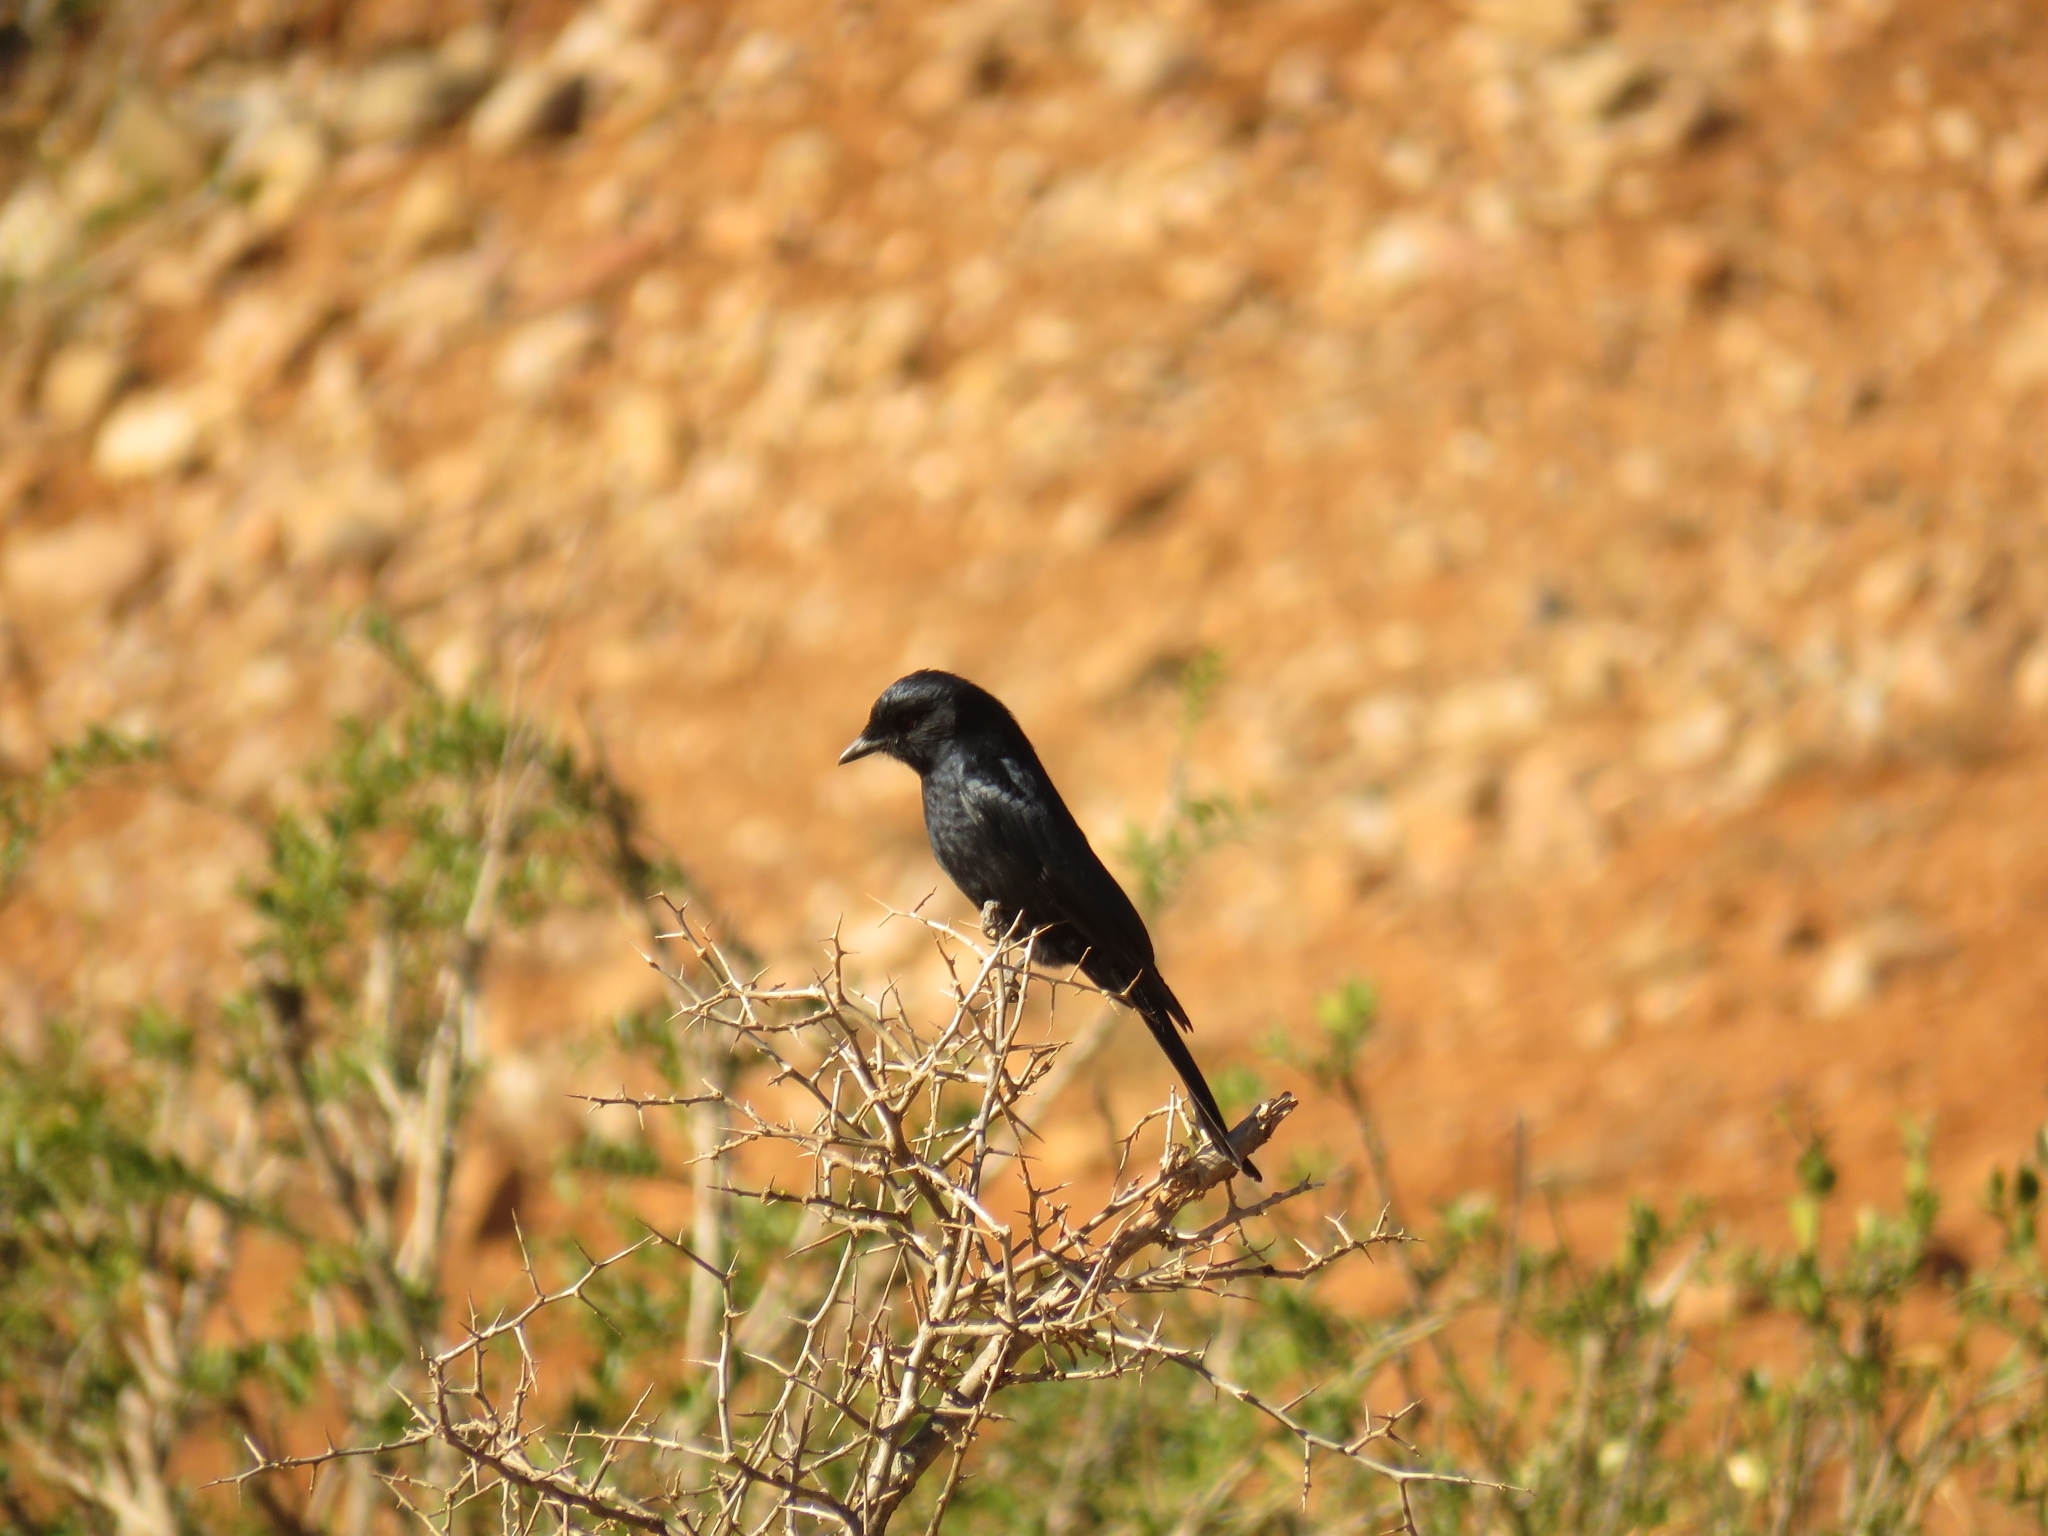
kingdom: Animalia
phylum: Chordata
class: Aves
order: Passeriformes
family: Dicruridae
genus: Dicrurus
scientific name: Dicrurus adsimilis
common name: Fork-tailed drongo
